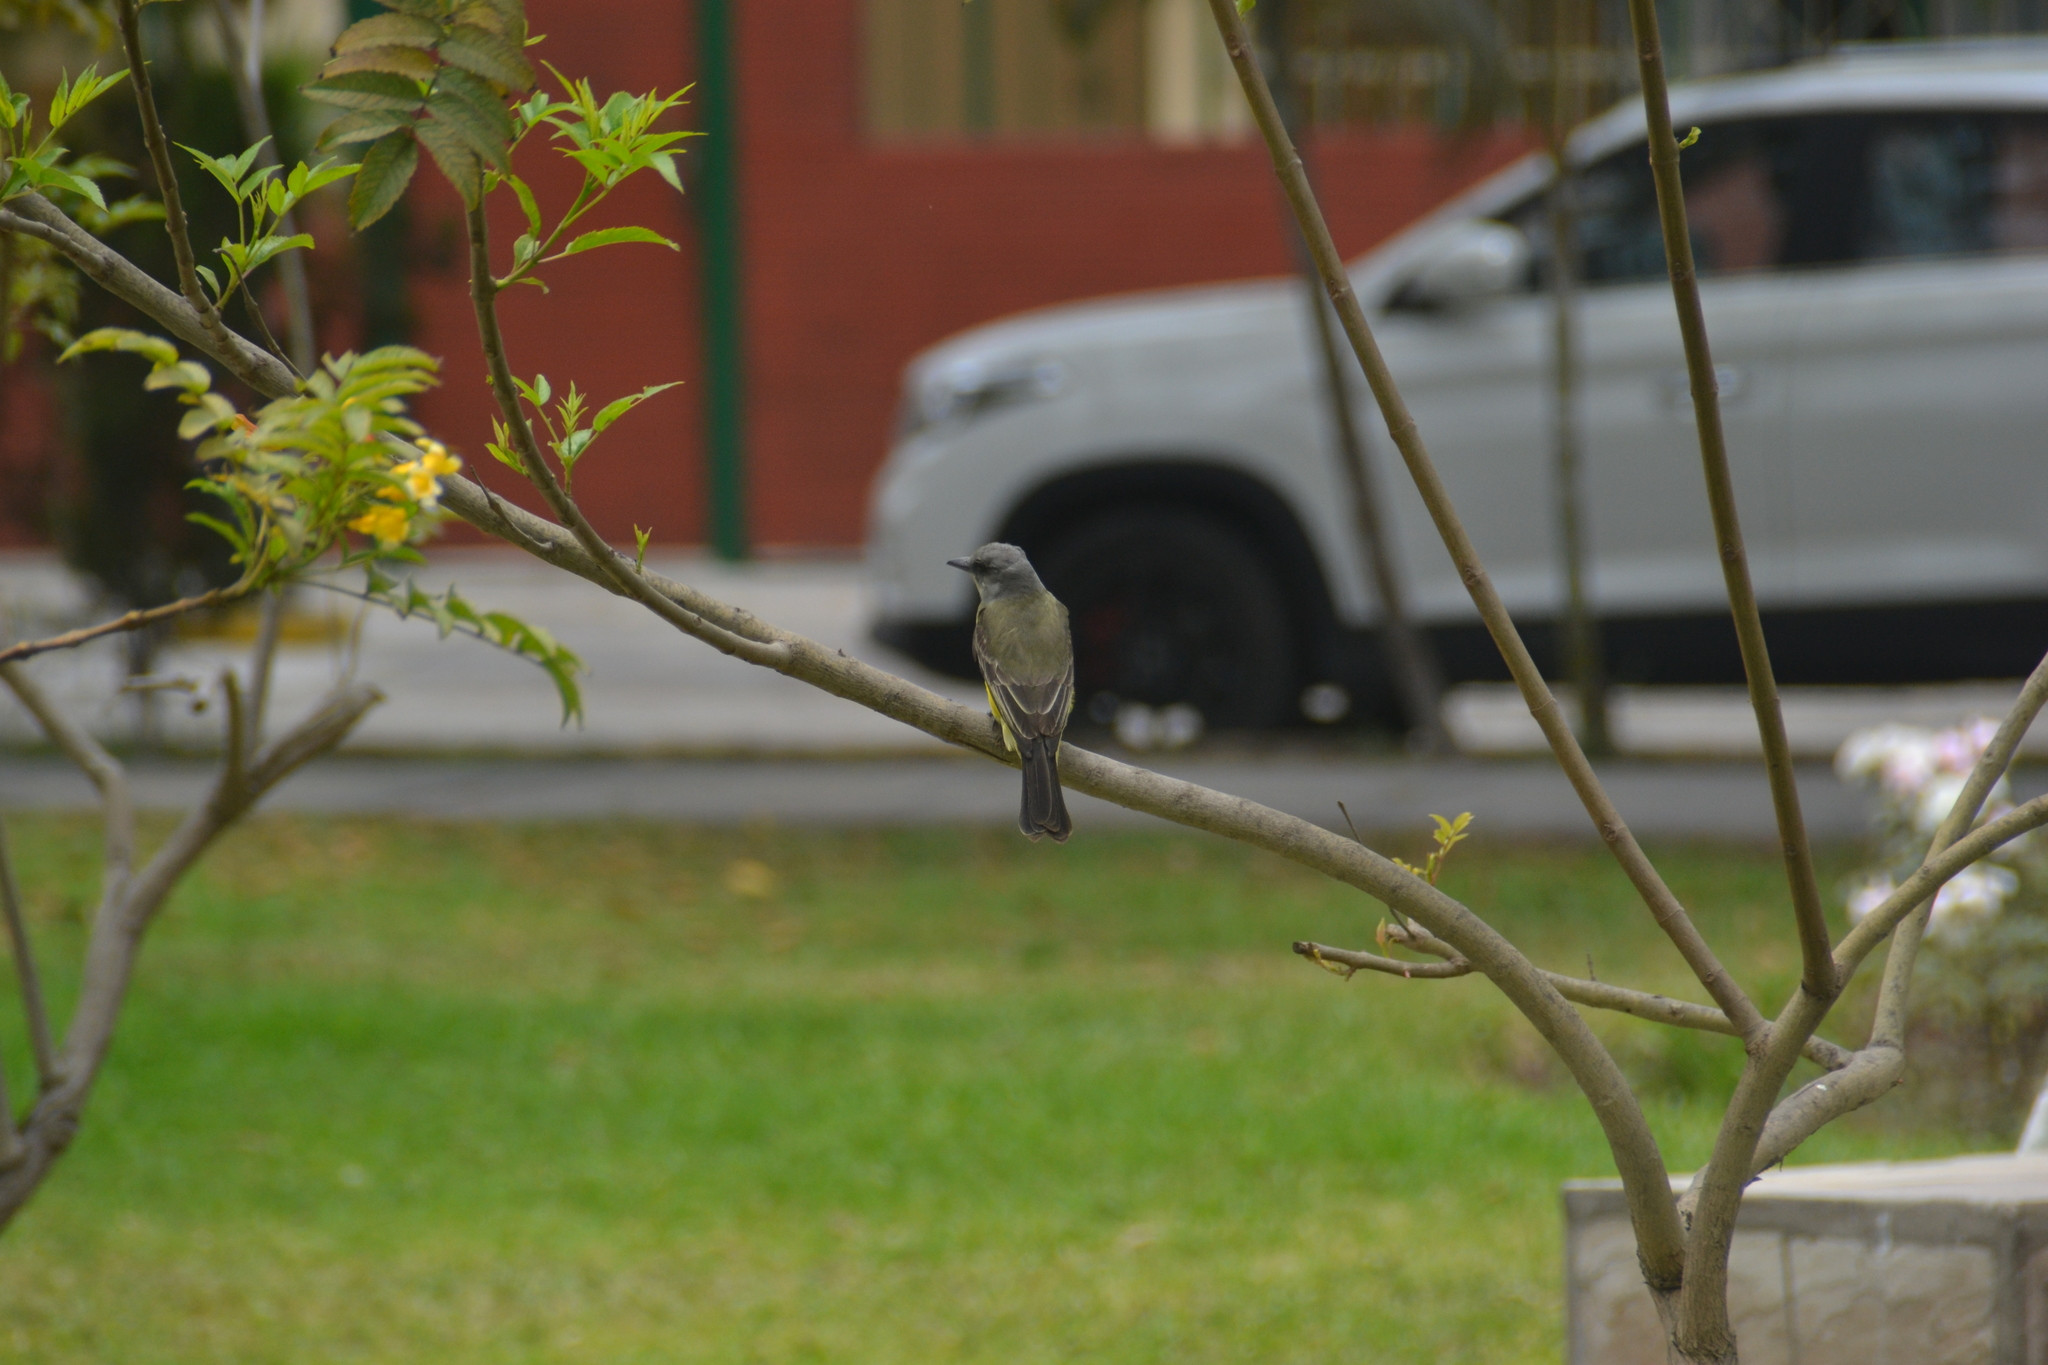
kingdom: Animalia
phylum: Chordata
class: Aves
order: Passeriformes
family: Tyrannidae
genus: Tyrannus
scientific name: Tyrannus melancholicus
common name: Tropical kingbird
